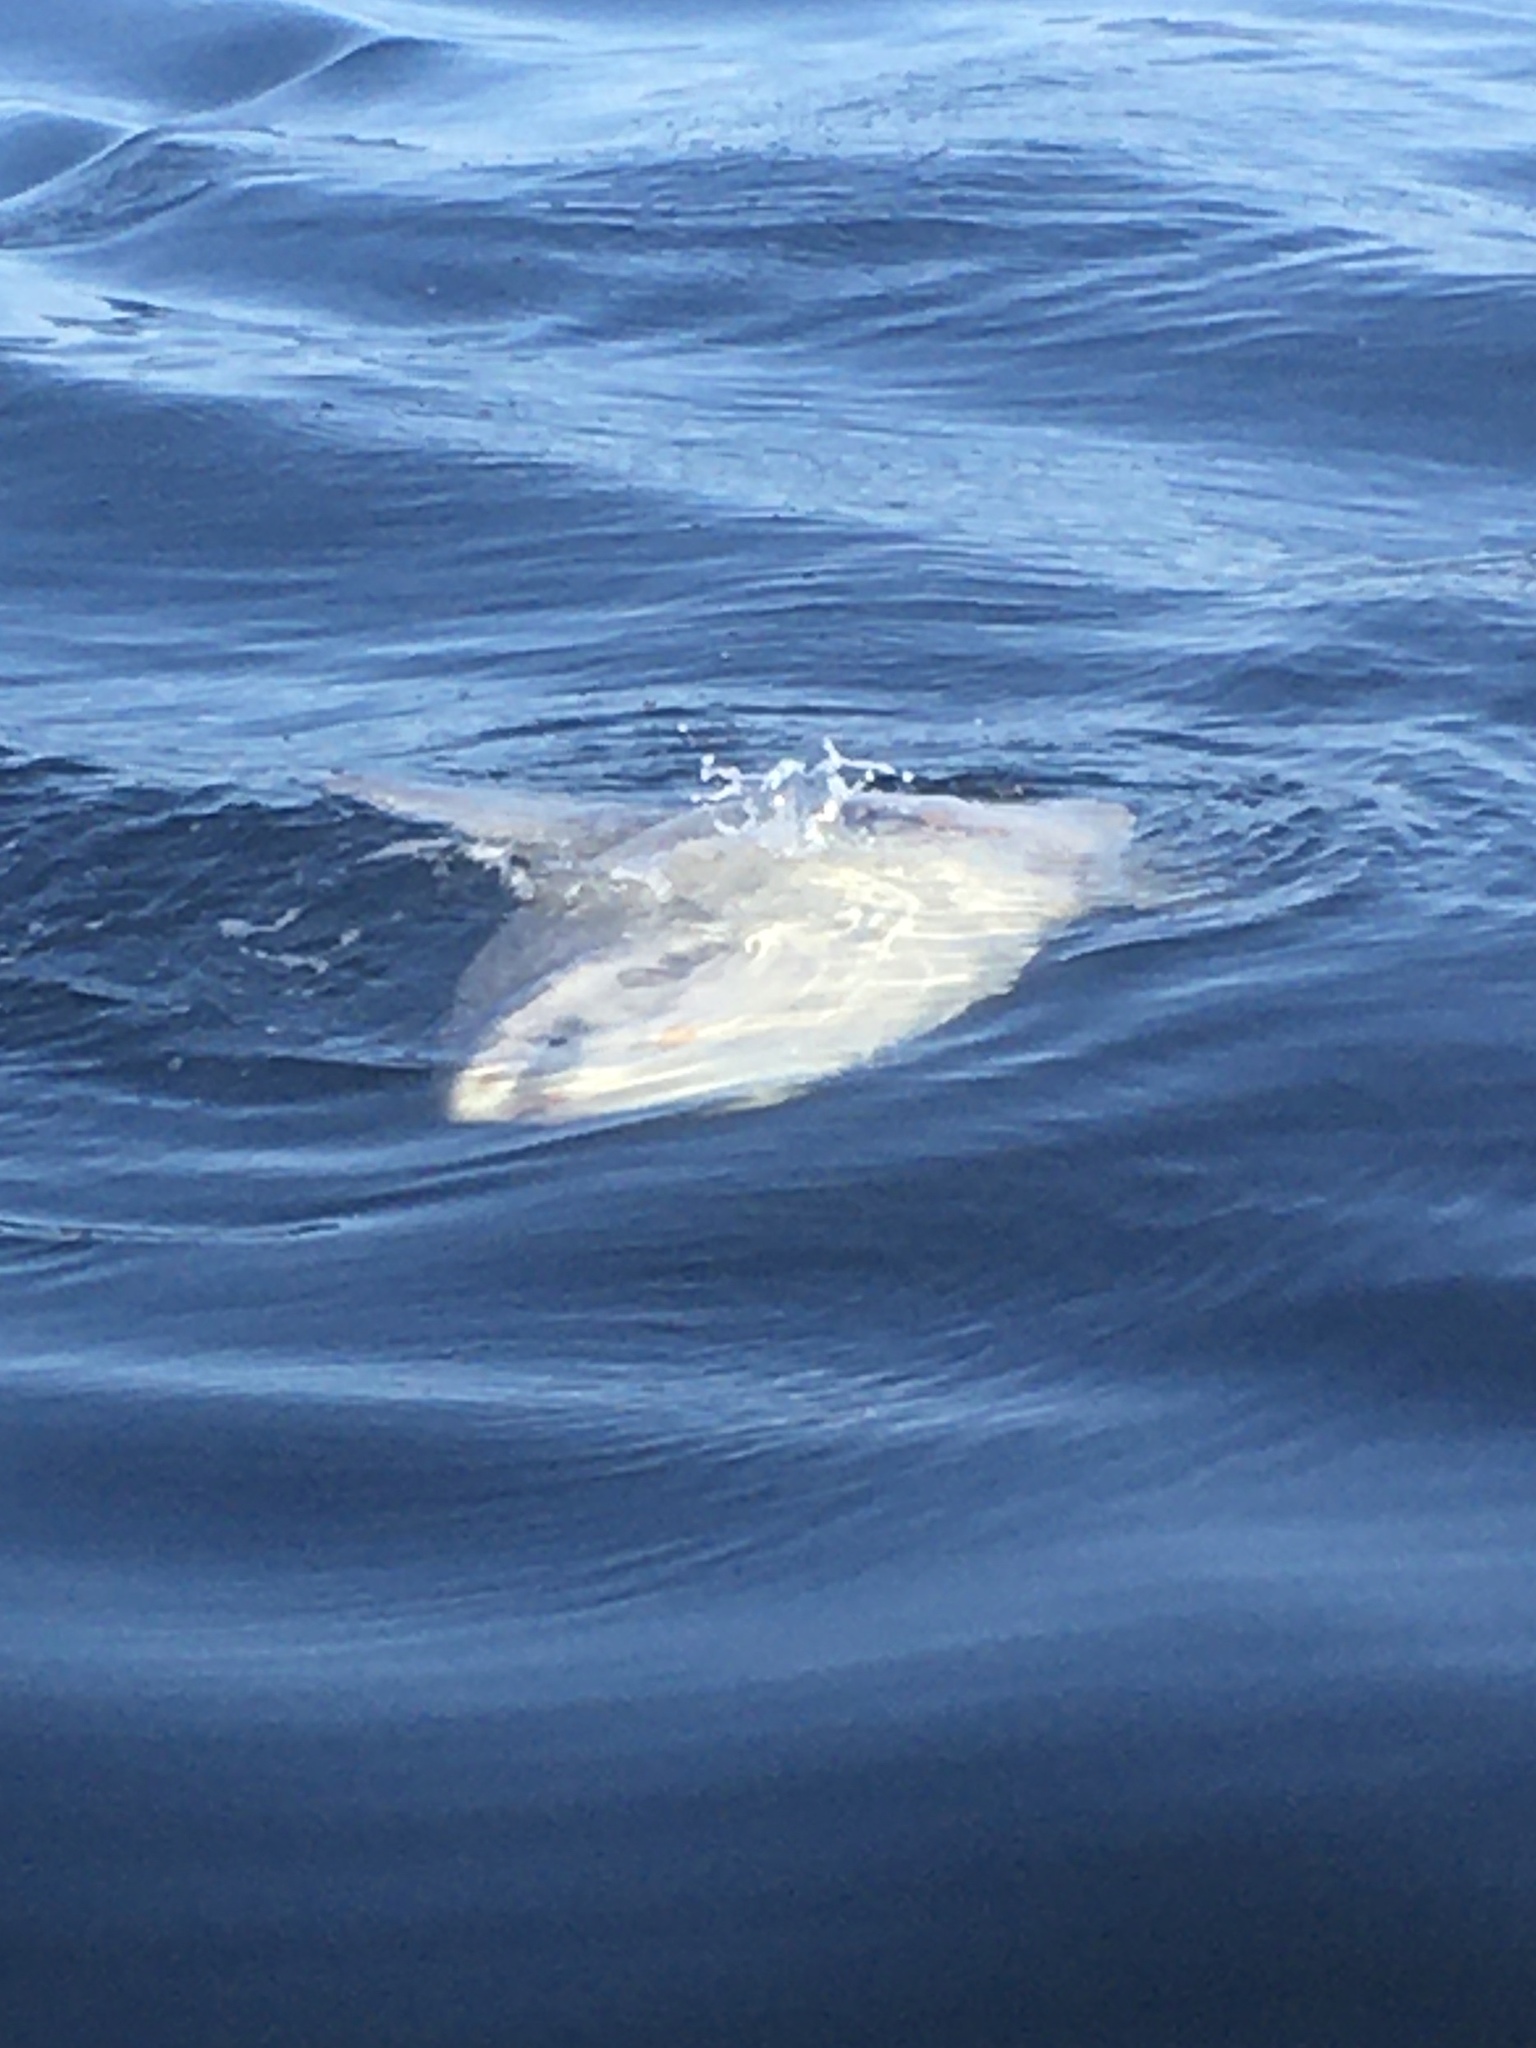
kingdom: Animalia
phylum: Chordata
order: Tetraodontiformes
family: Molidae
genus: Mola
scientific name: Mola mola
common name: Ocean sunfish
